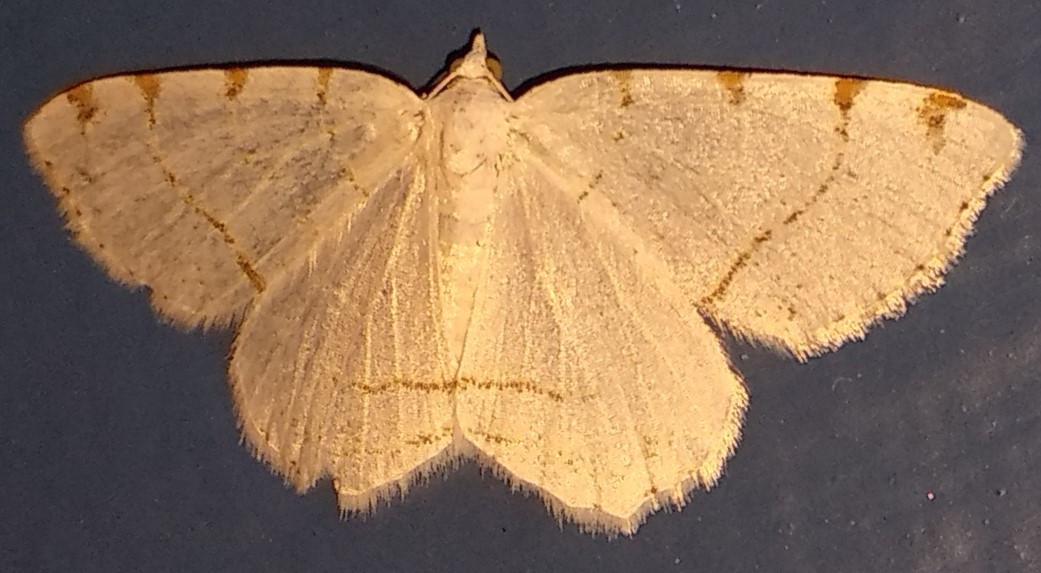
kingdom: Animalia
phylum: Arthropoda
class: Insecta
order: Lepidoptera
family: Geometridae
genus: Macaria
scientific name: Macaria pustularia
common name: Lesser maple spanworm moth
